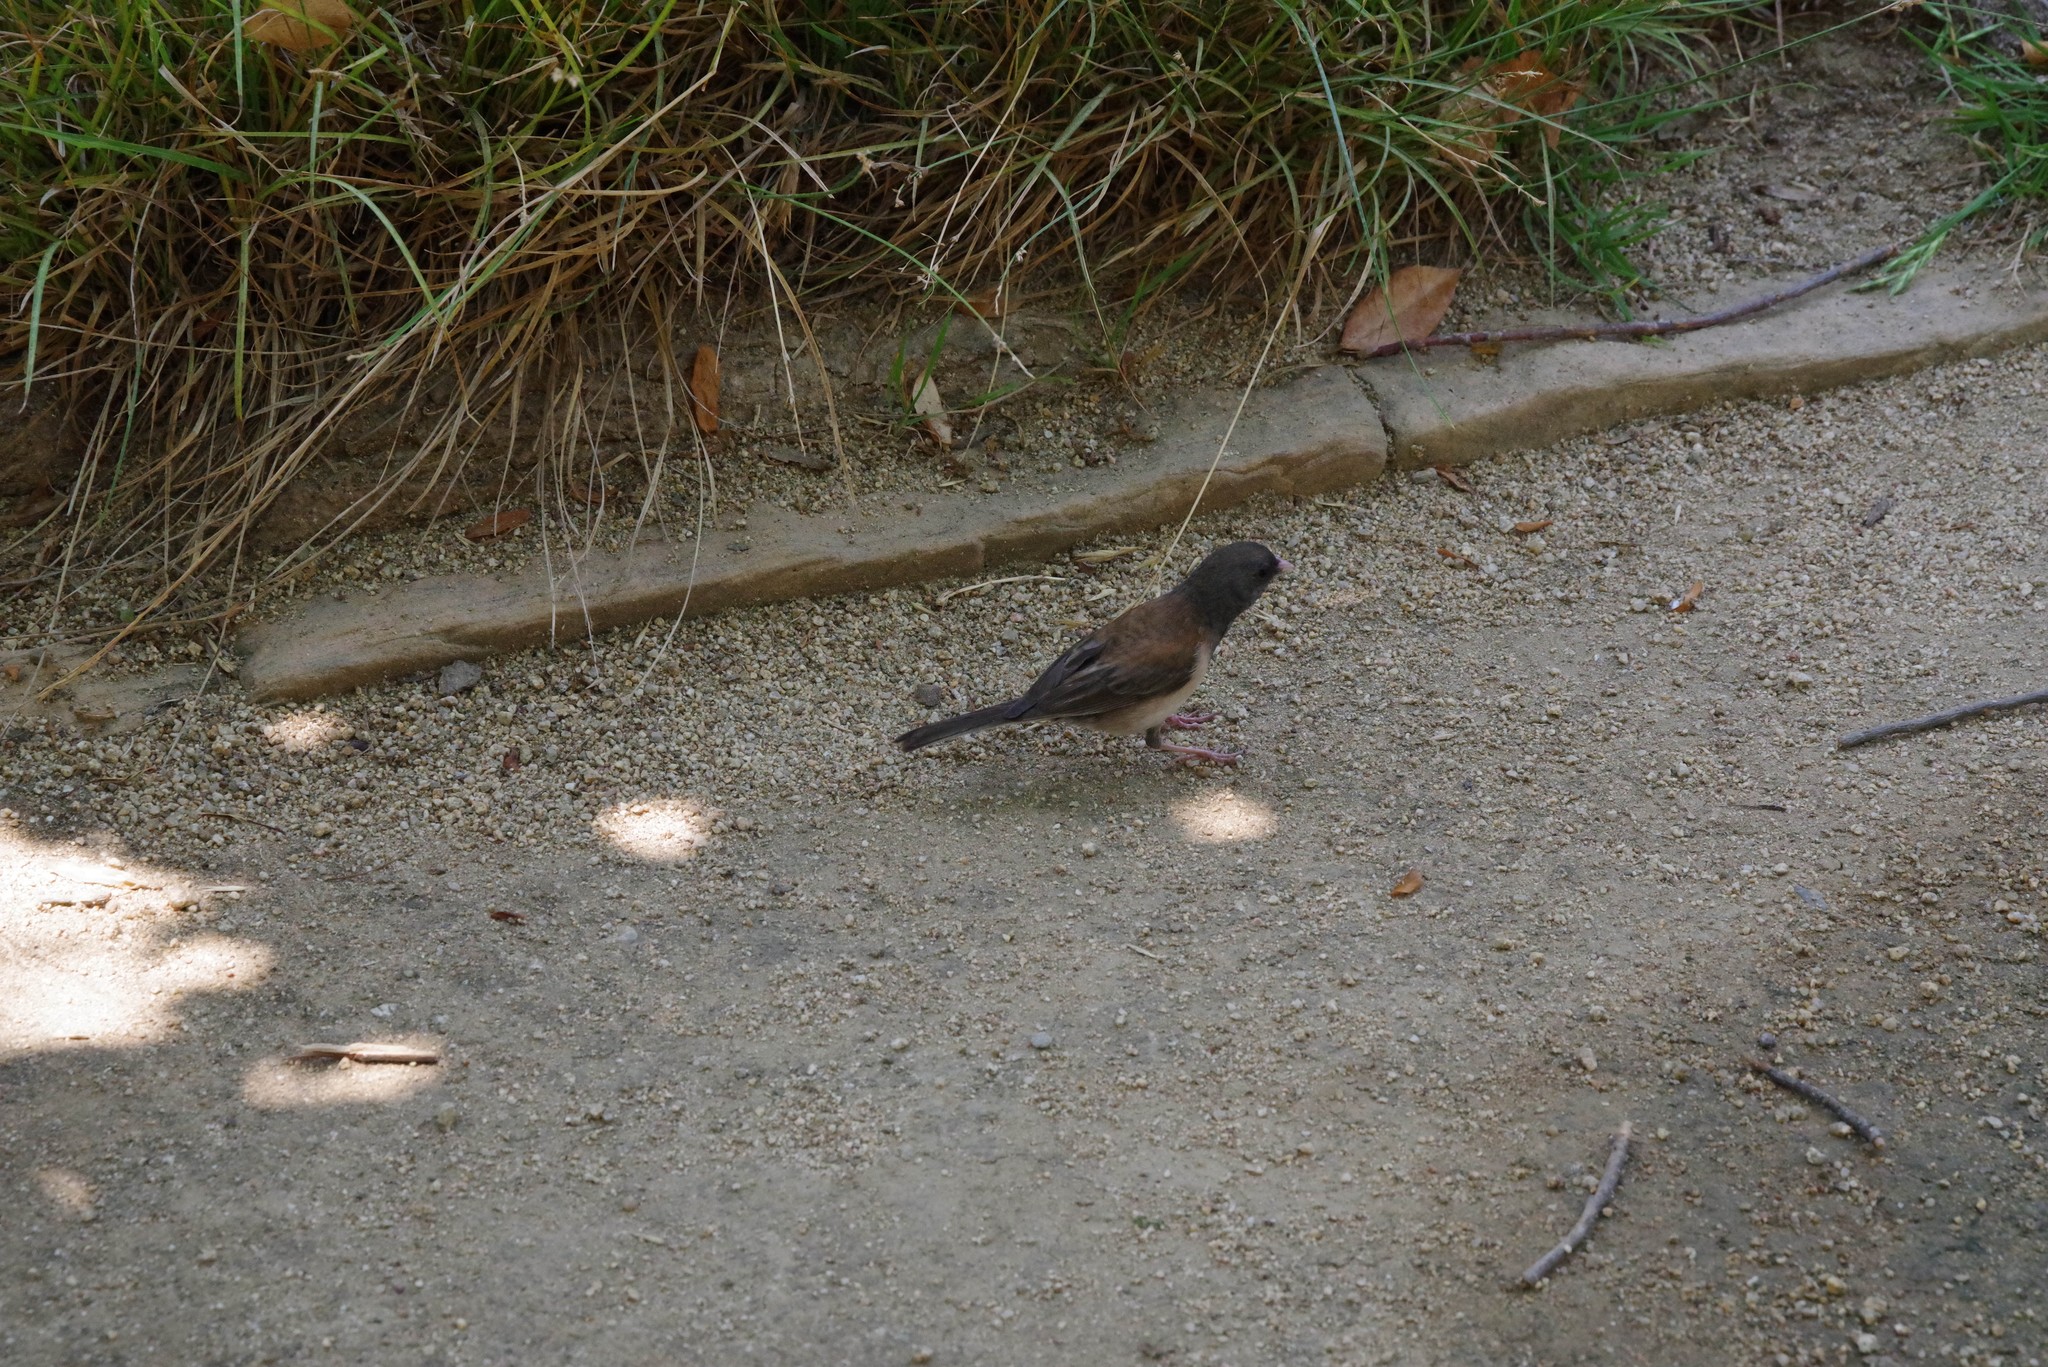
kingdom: Animalia
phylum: Chordata
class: Aves
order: Passeriformes
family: Passerellidae
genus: Junco
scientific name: Junco hyemalis
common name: Dark-eyed junco
